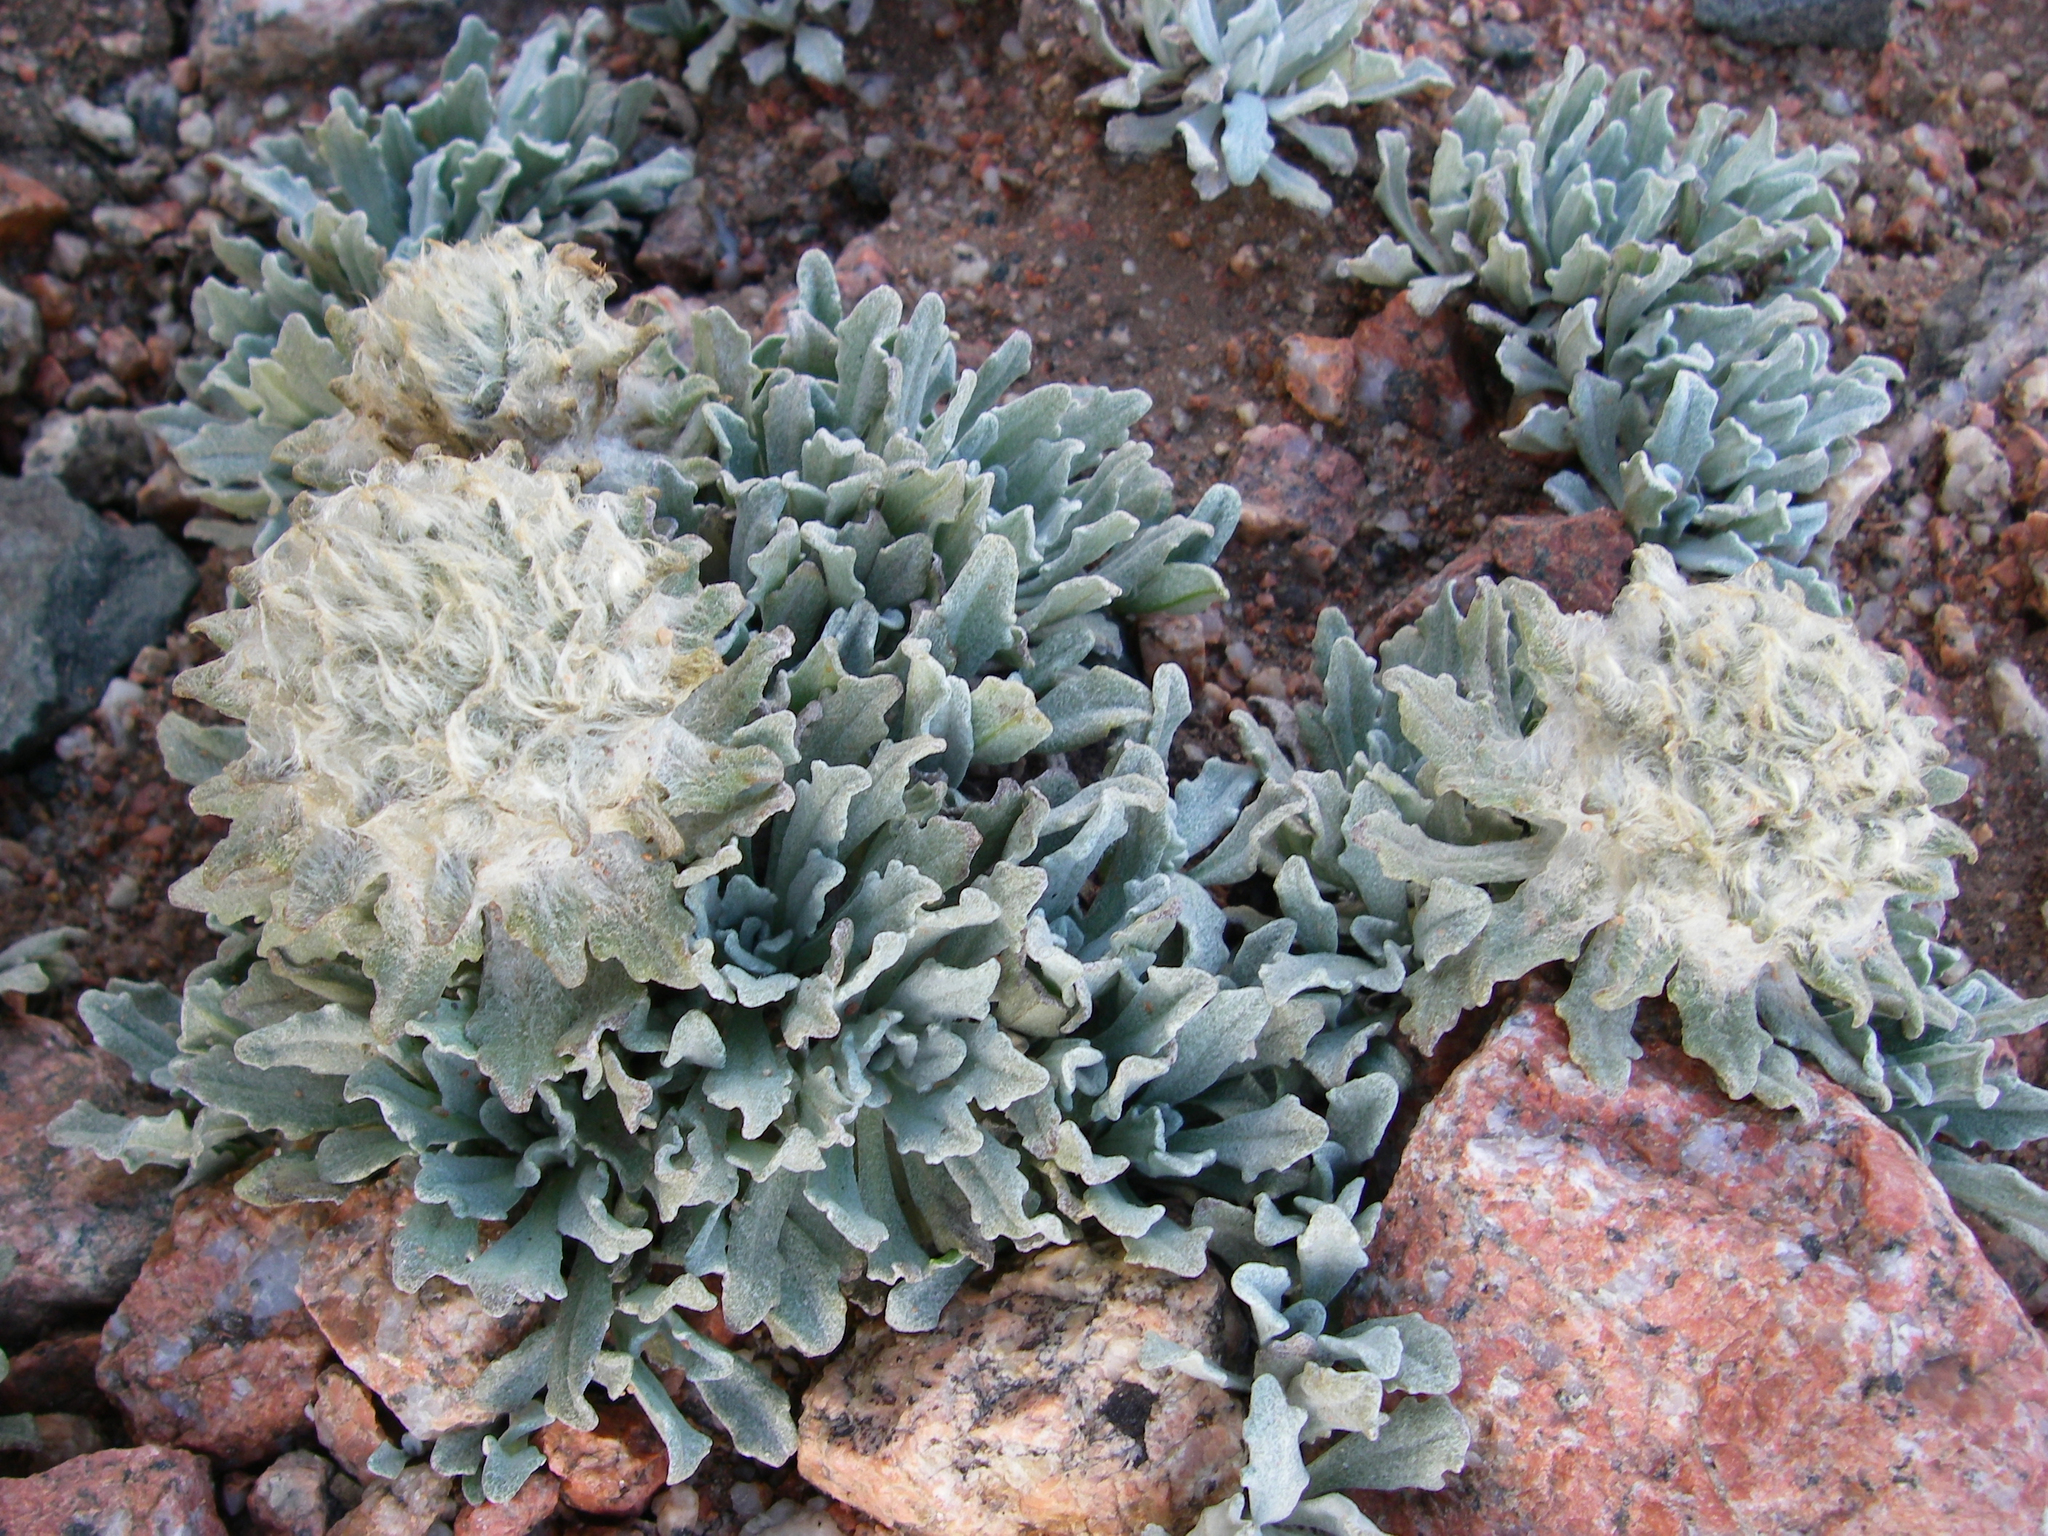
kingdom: Plantae
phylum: Tracheophyta
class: Magnoliopsida
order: Asterales
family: Asteraceae
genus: Saussurea
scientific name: Saussurea gnaphalodes
